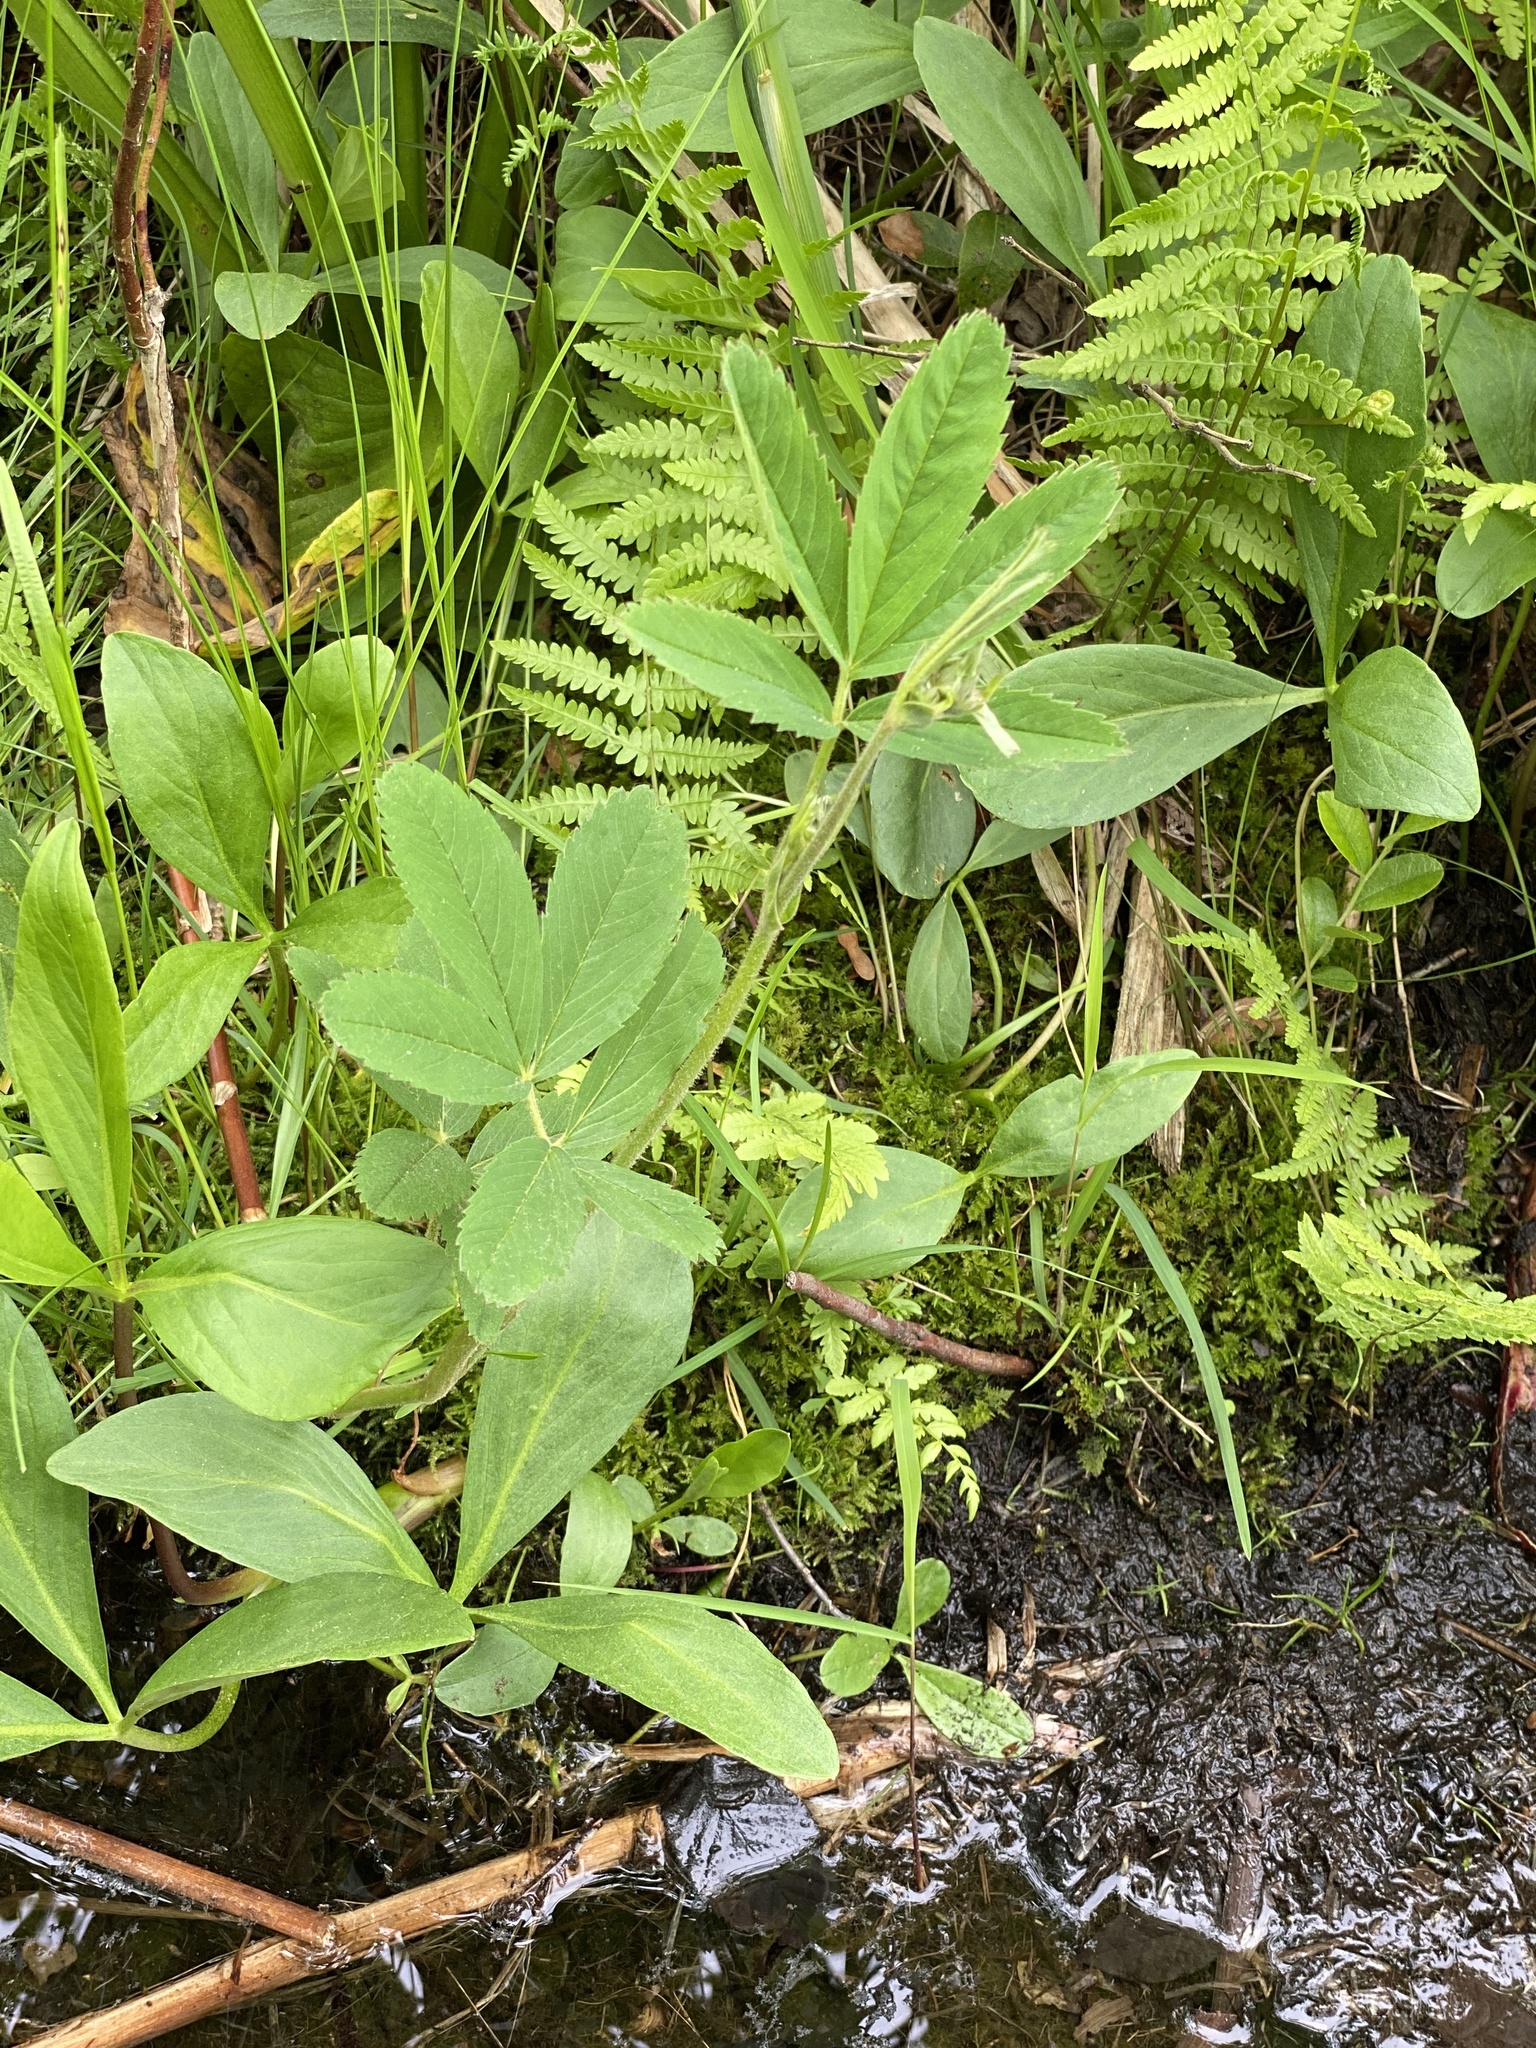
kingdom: Plantae
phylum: Tracheophyta
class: Magnoliopsida
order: Rosales
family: Rosaceae
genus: Comarum
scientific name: Comarum palustre
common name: Marsh cinquefoil
